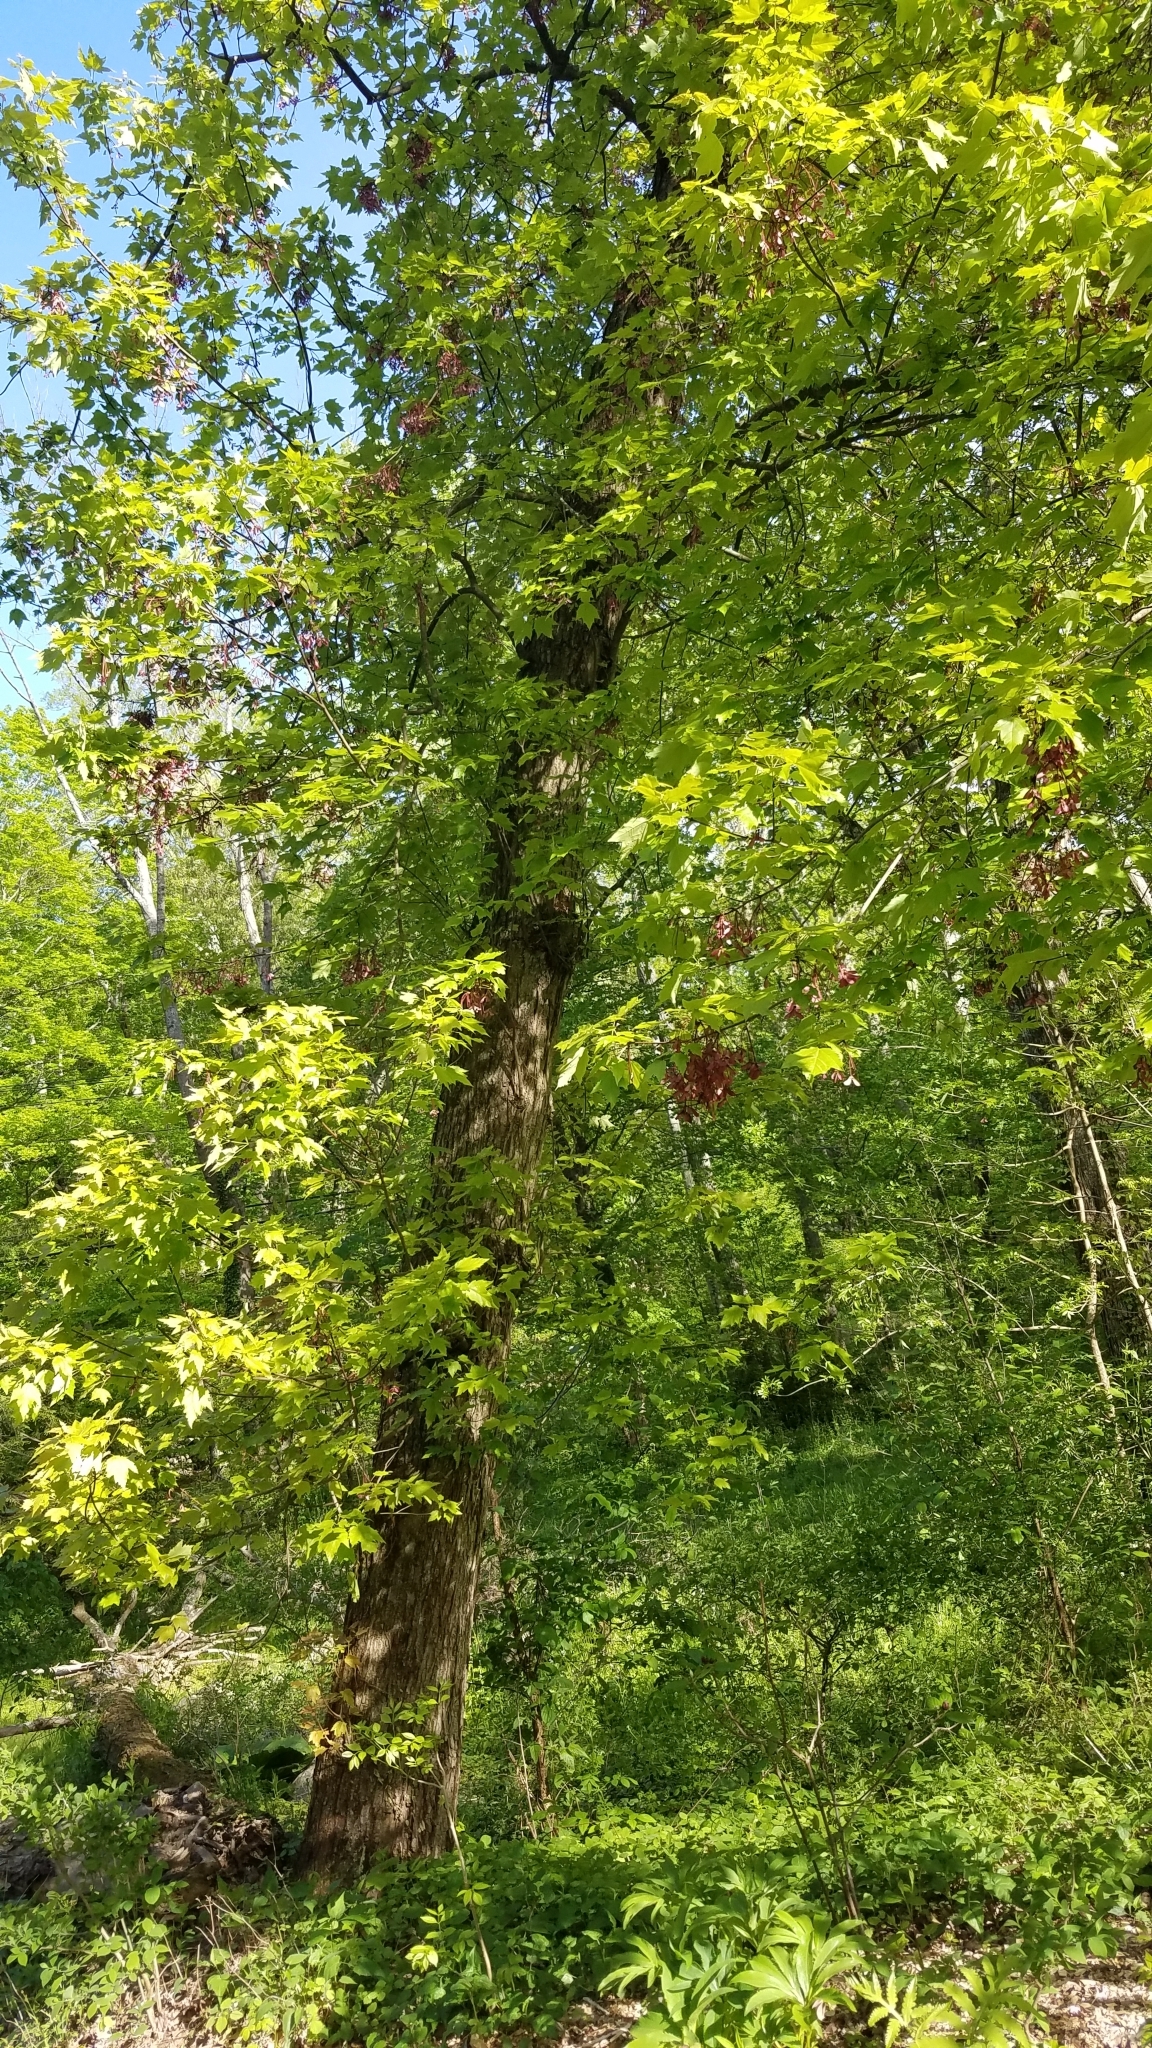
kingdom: Plantae
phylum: Tracheophyta
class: Magnoliopsida
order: Sapindales
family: Sapindaceae
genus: Acer
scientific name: Acer rubrum
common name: Red maple
